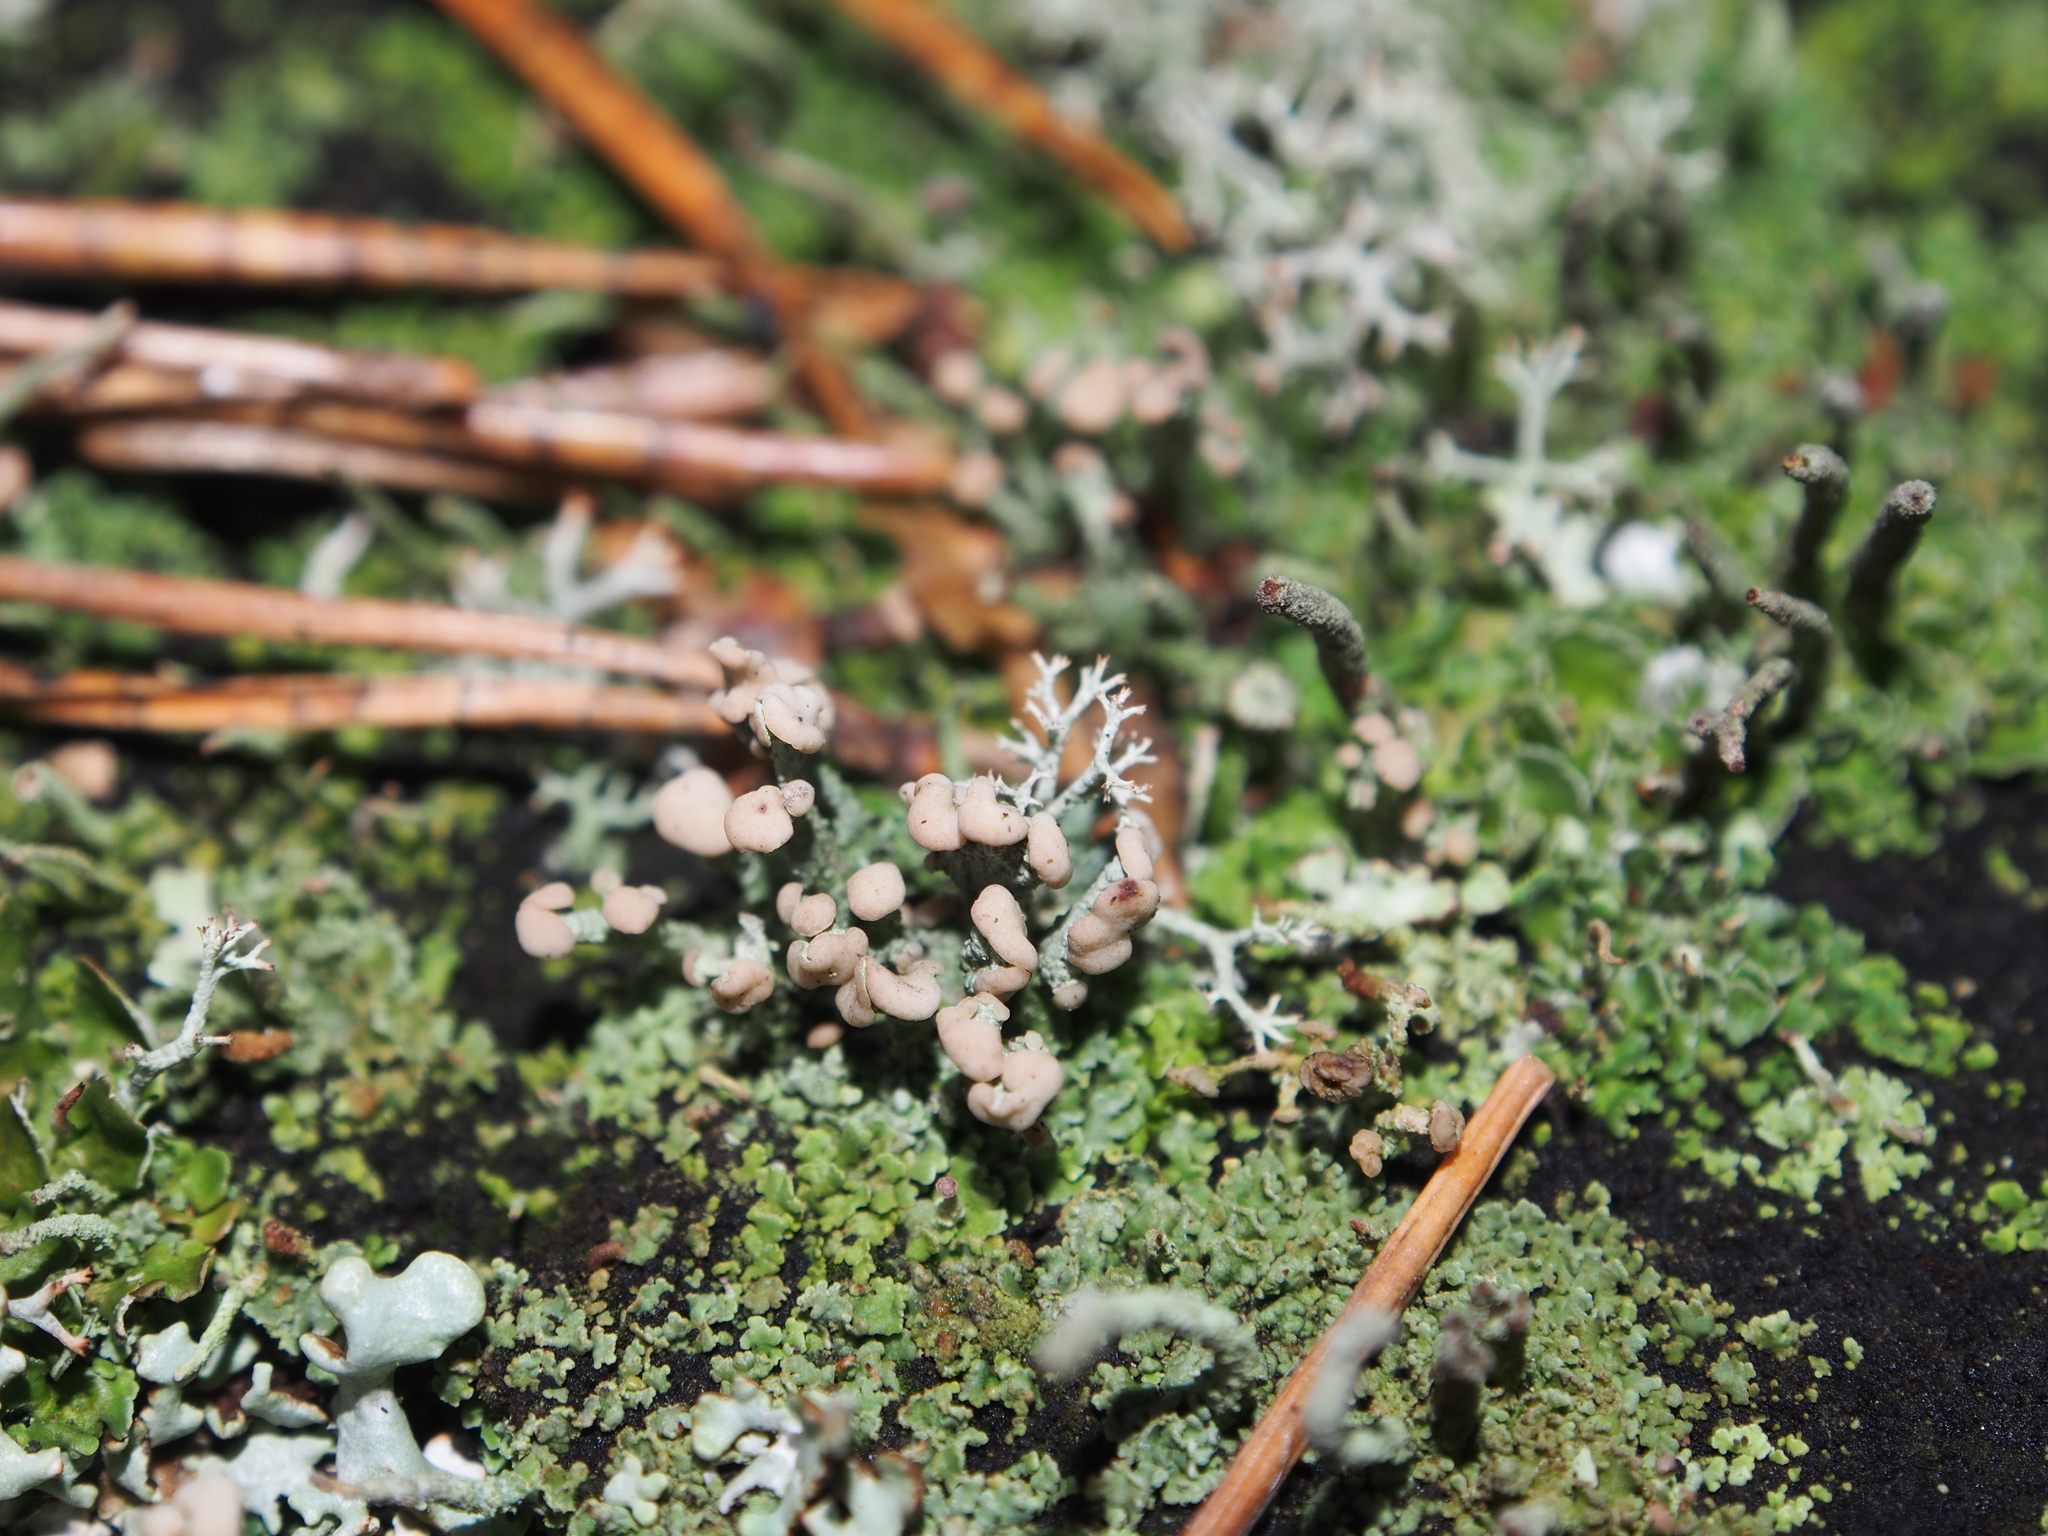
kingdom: Fungi
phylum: Ascomycota
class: Lecanoromycetes
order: Lecanorales
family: Cladoniaceae
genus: Cladonia
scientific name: Cladonia botrytes
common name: Stump lichen
